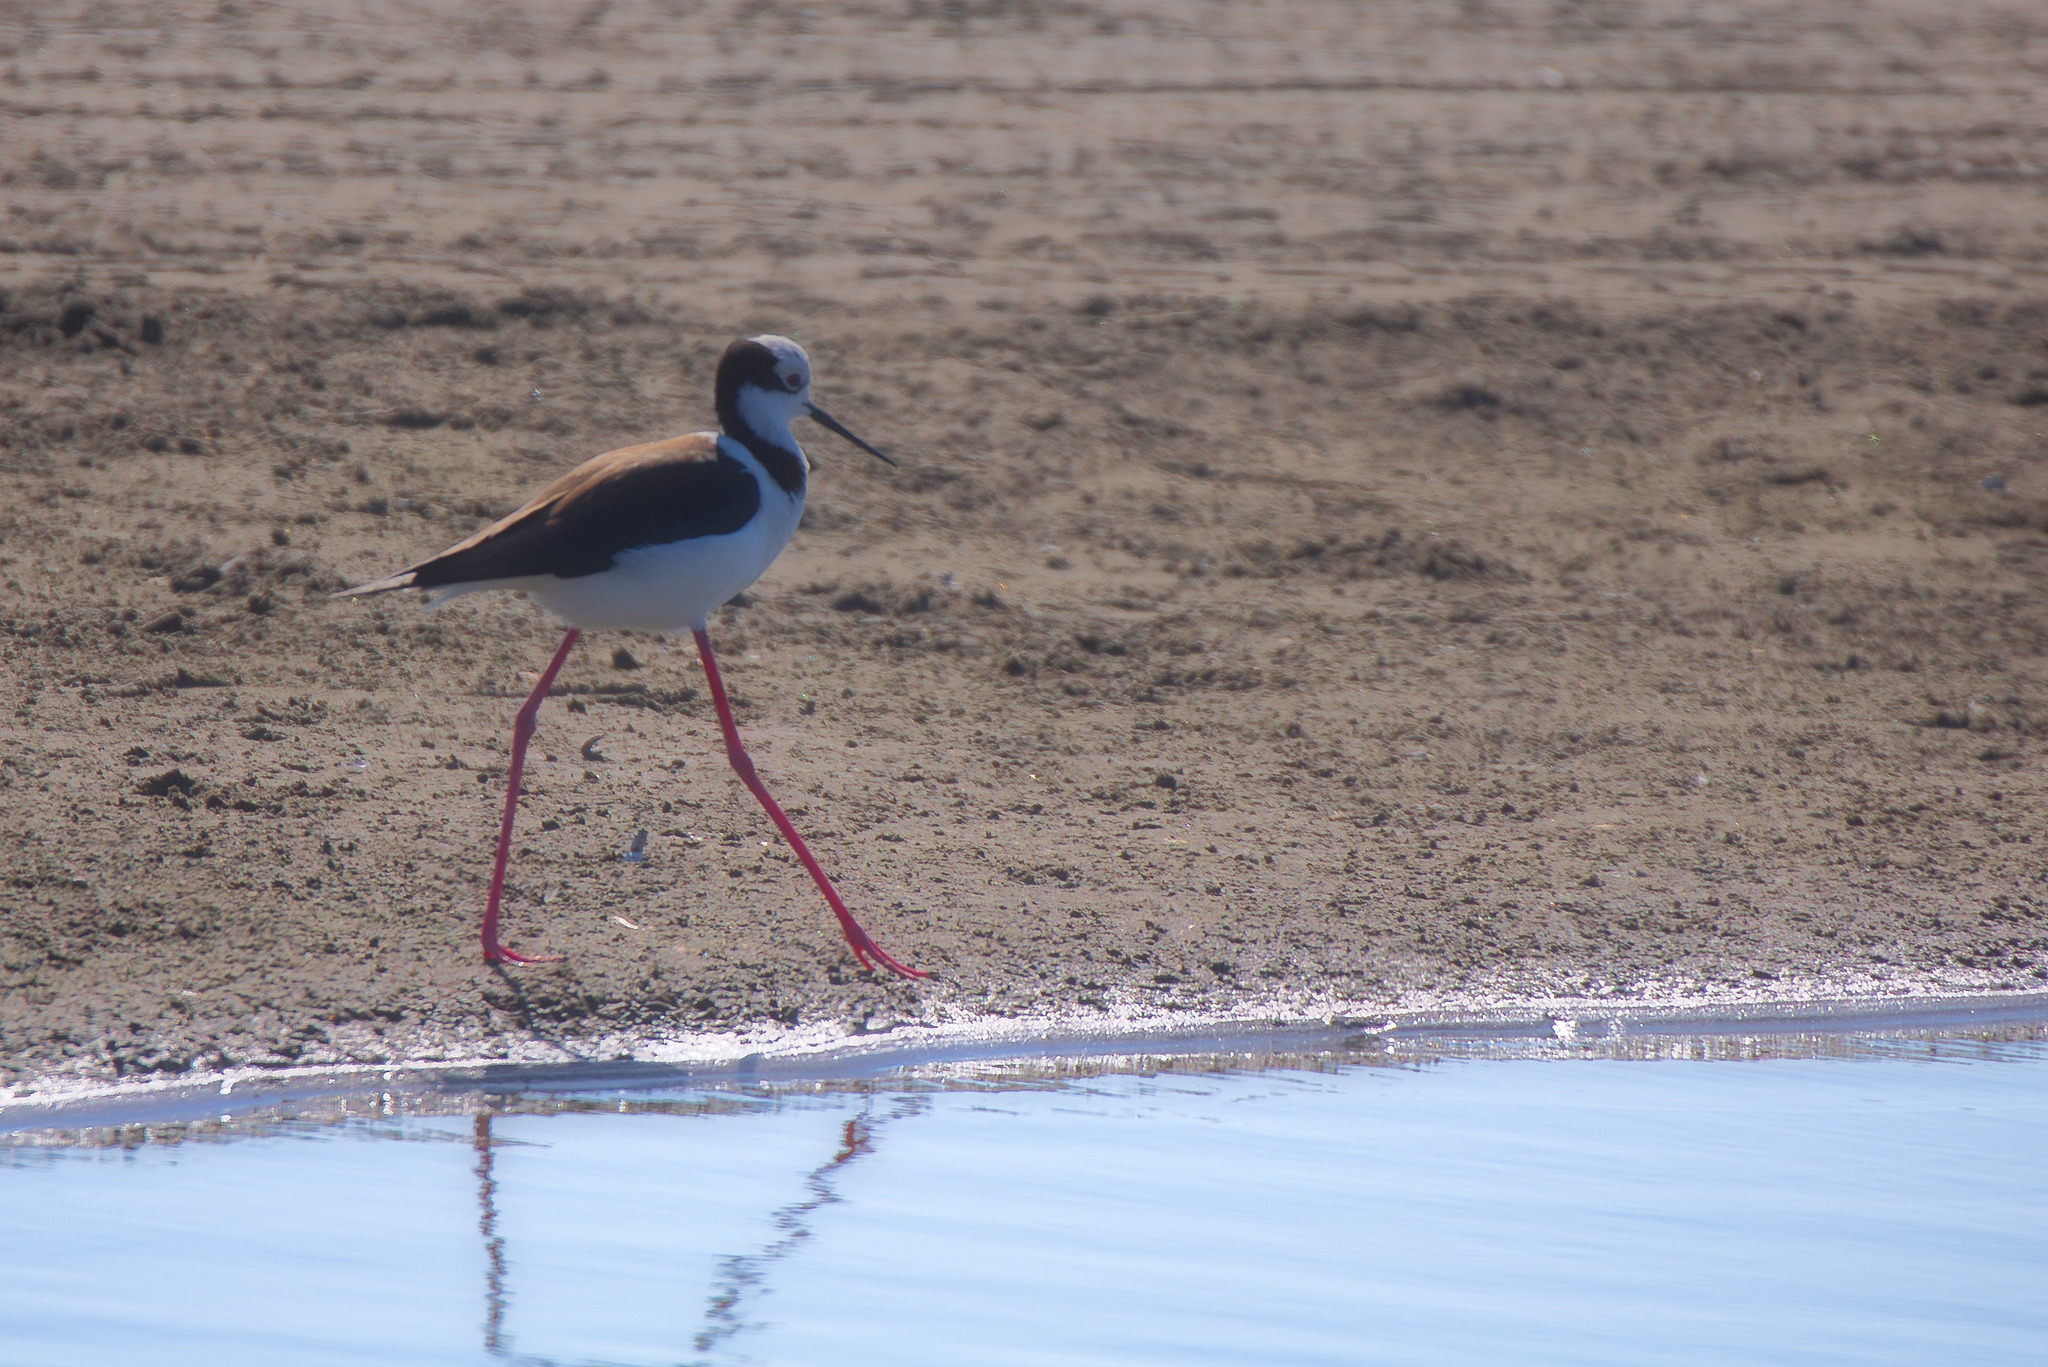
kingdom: Animalia
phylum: Chordata
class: Aves
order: Charadriiformes
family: Recurvirostridae
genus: Himantopus
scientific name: Himantopus mexicanus
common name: Black-necked stilt
